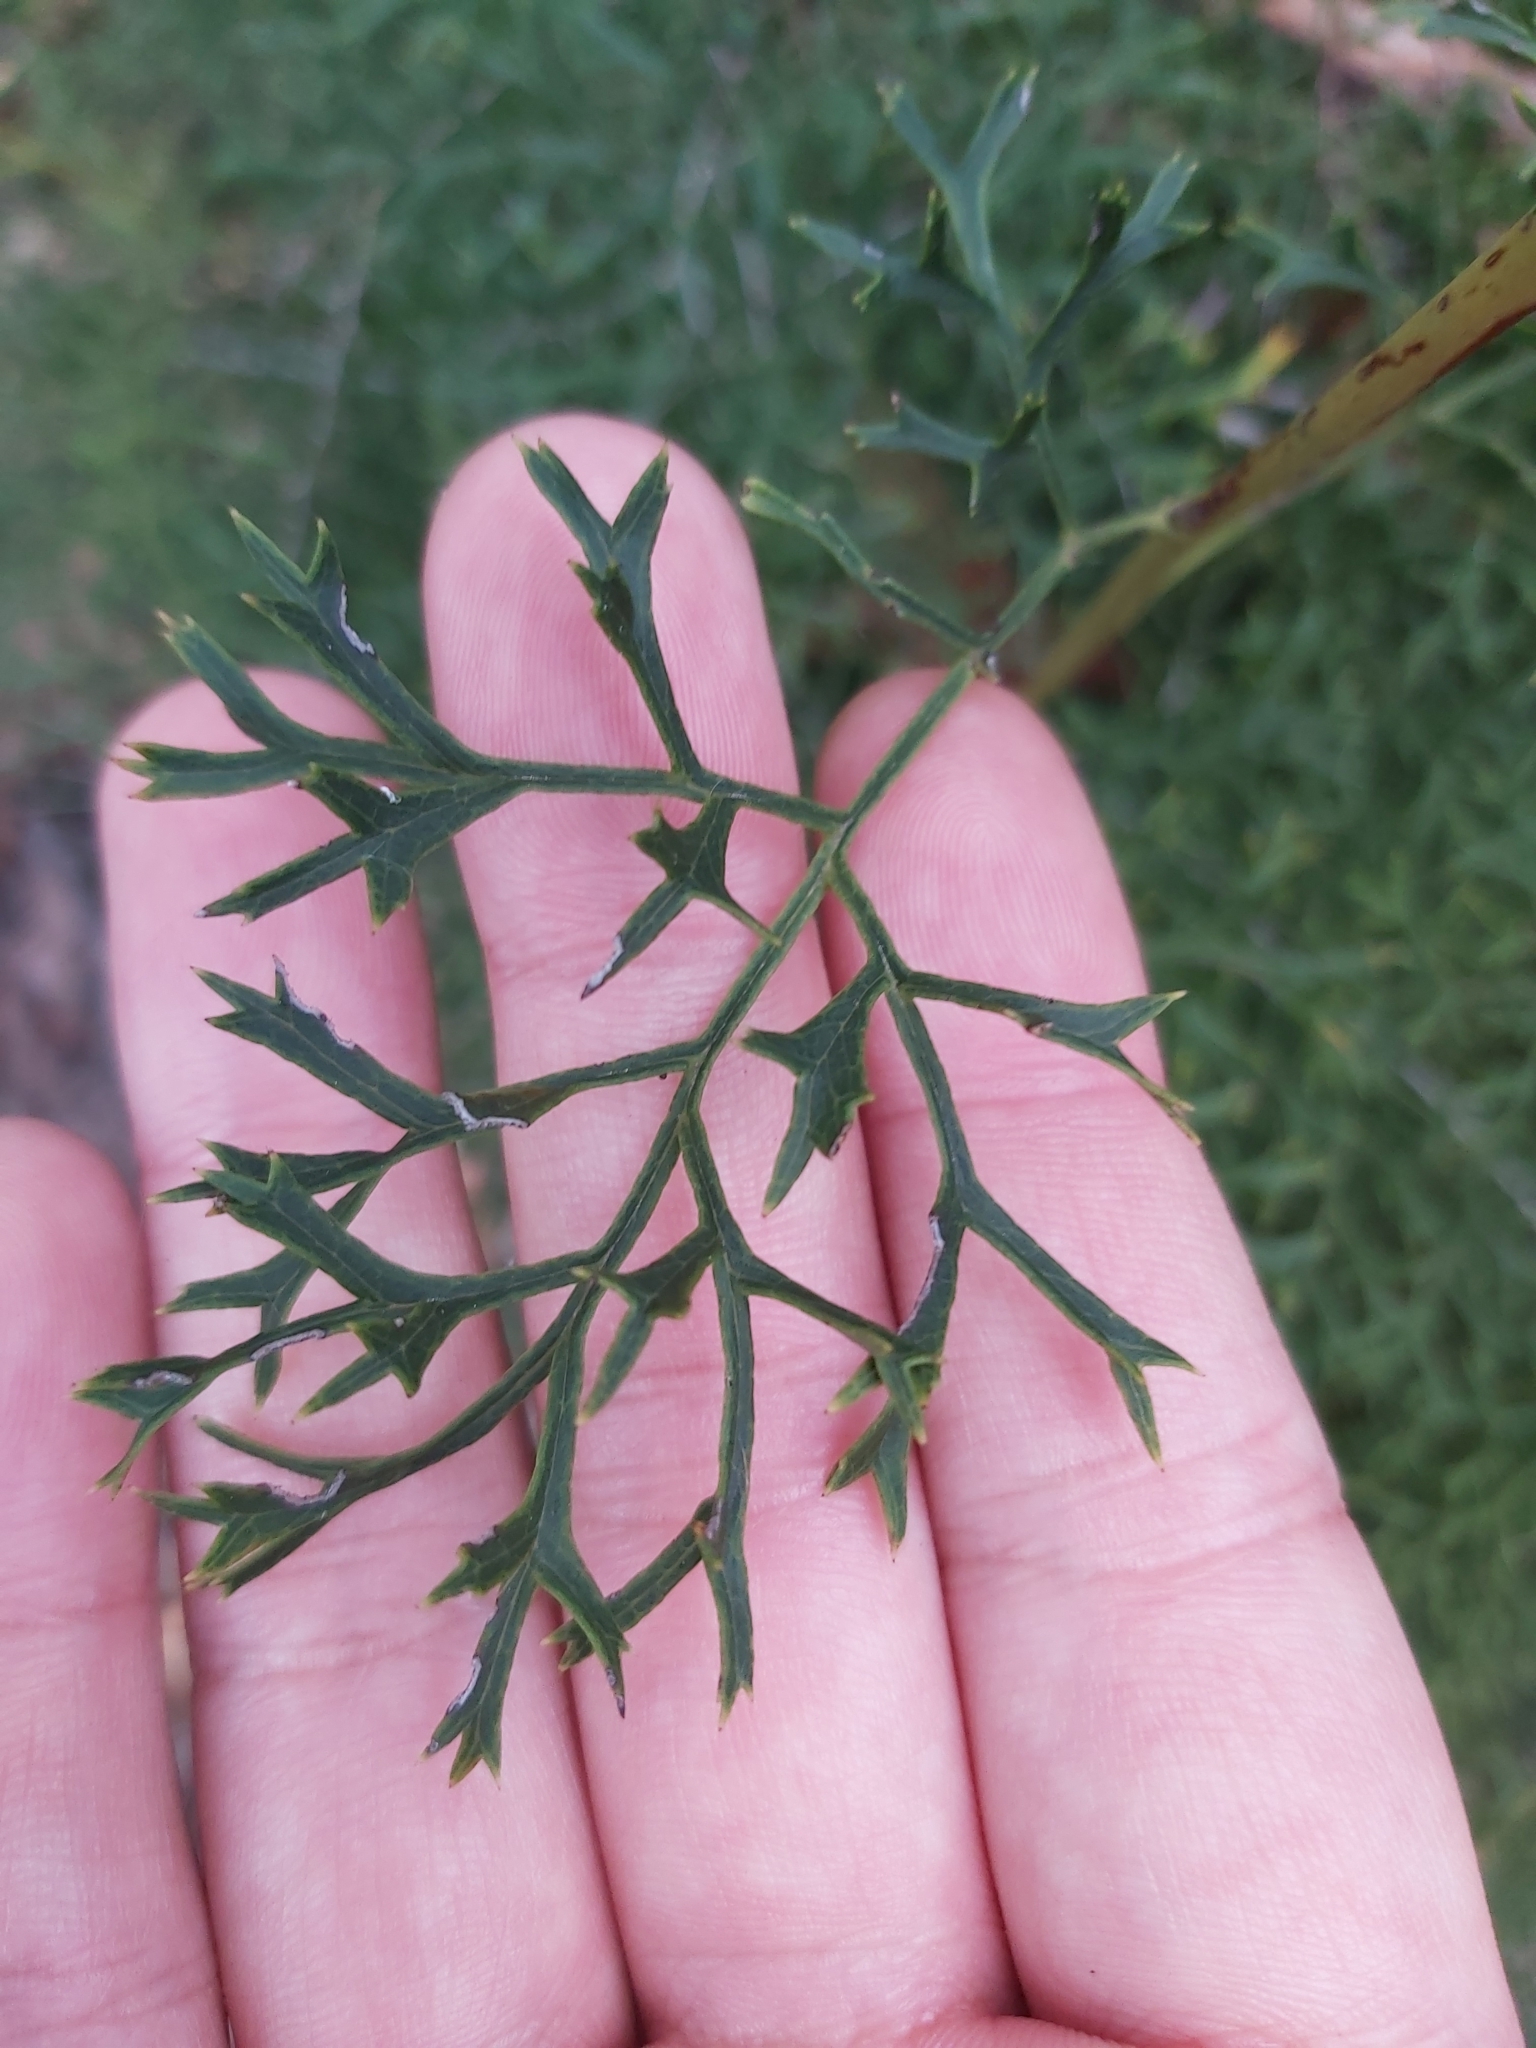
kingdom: Plantae
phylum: Tracheophyta
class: Magnoliopsida
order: Proteales
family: Proteaceae
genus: Lomatia
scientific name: Lomatia silaifolia
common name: Crinklebush
